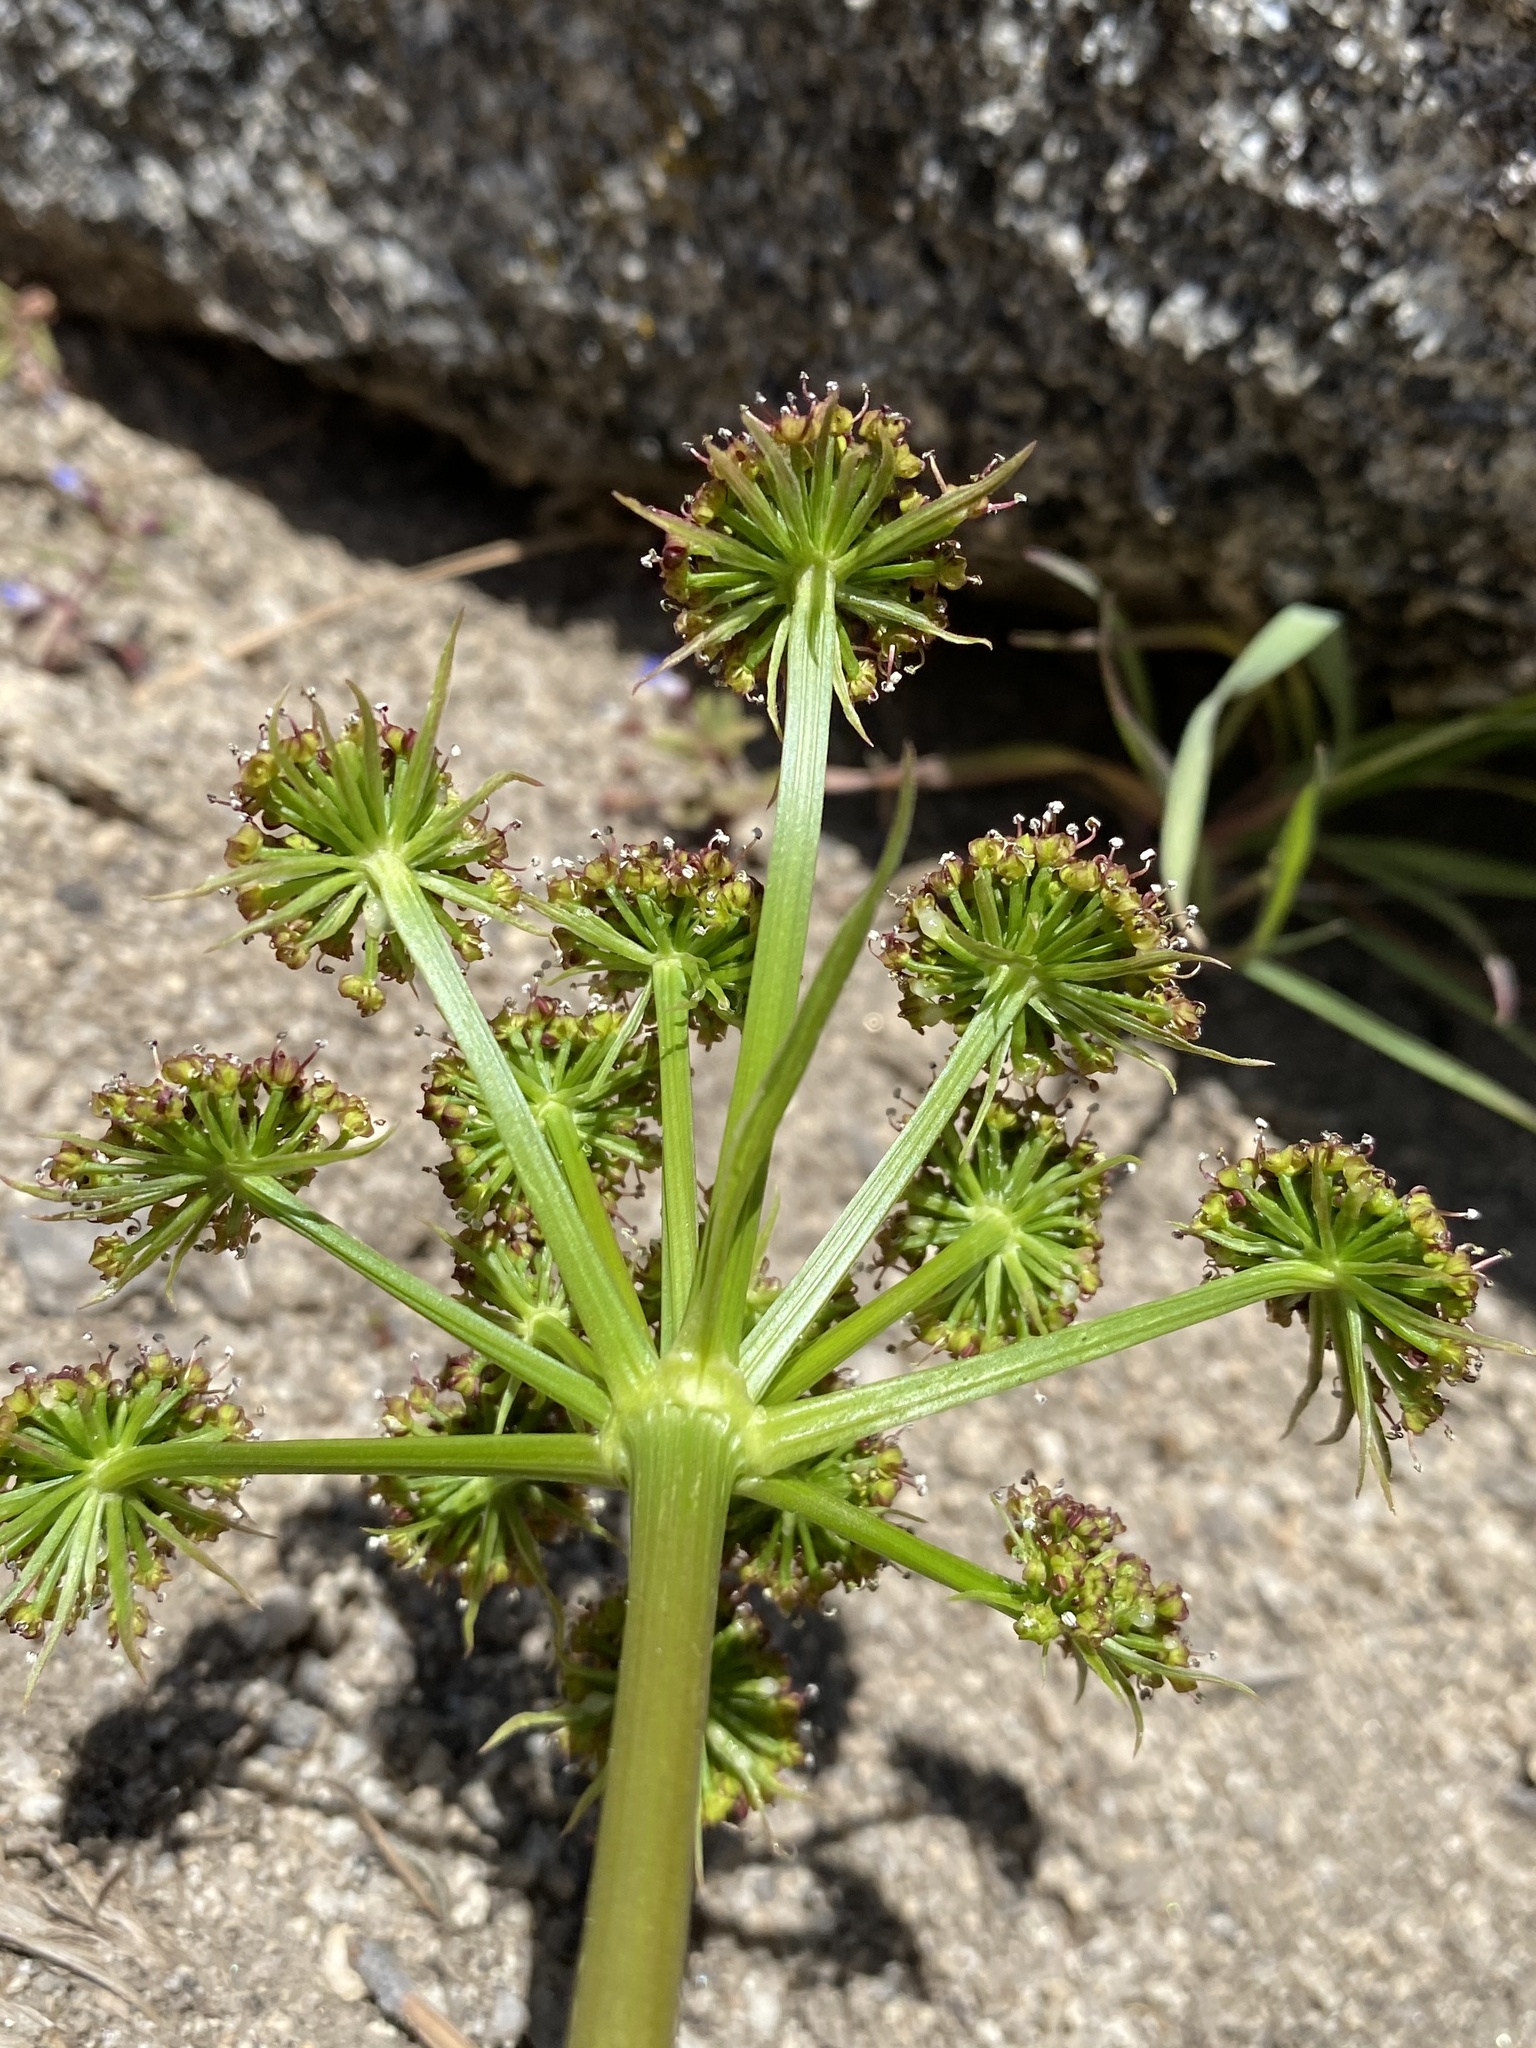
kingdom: Plantae
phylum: Tracheophyta
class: Magnoliopsida
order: Apiales
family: Apiaceae
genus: Lomatium
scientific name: Lomatium dissectum
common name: Lomatium
